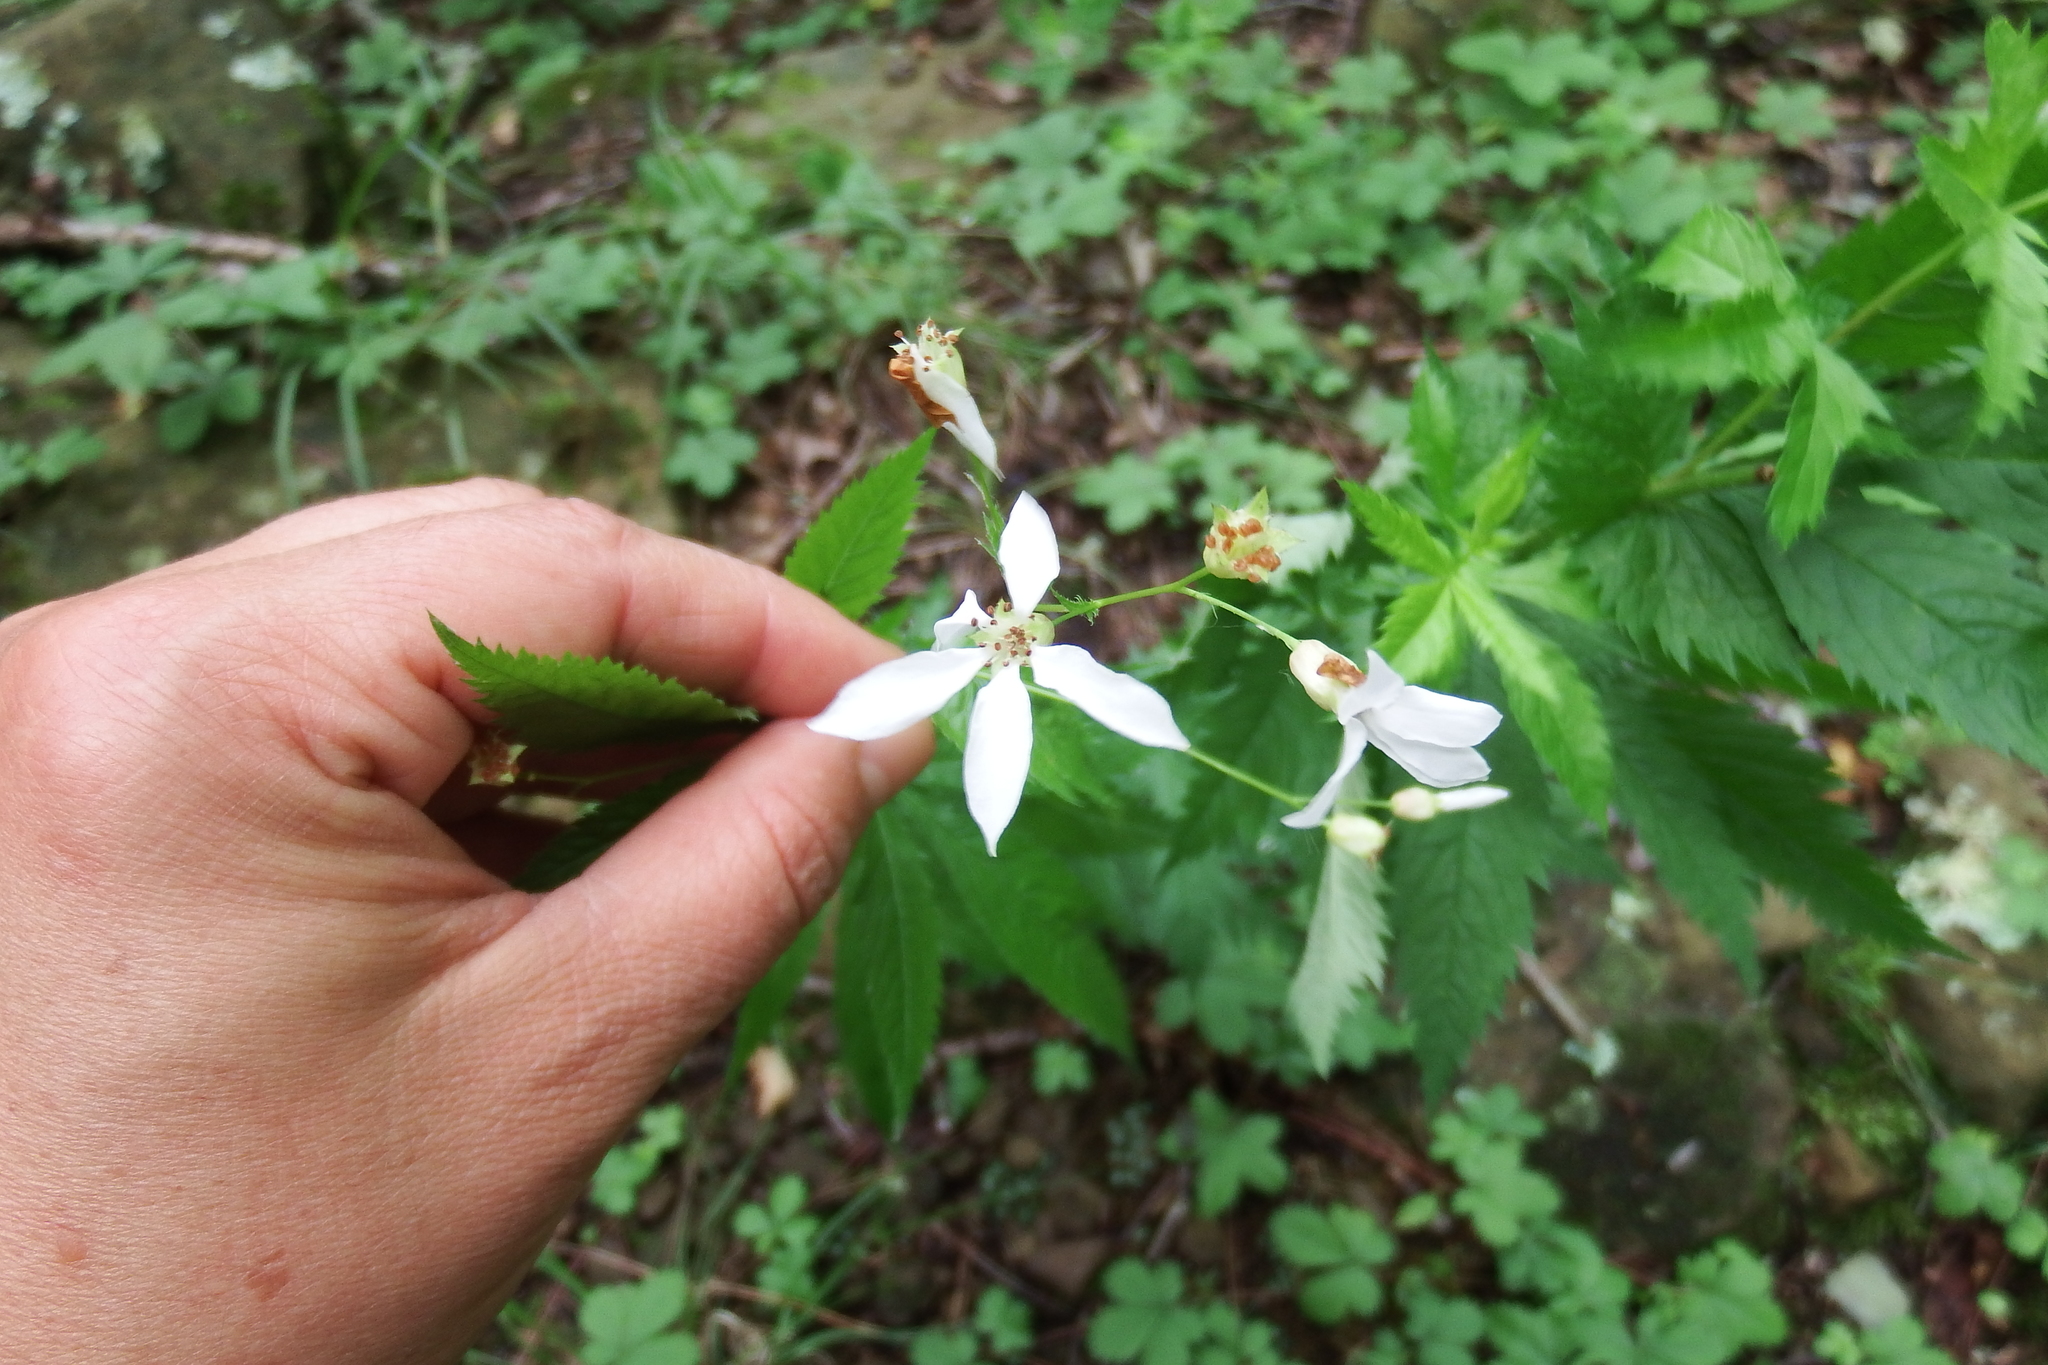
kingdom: Plantae
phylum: Tracheophyta
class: Magnoliopsida
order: Rosales
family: Rosaceae
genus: Gillenia
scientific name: Gillenia stipulata
